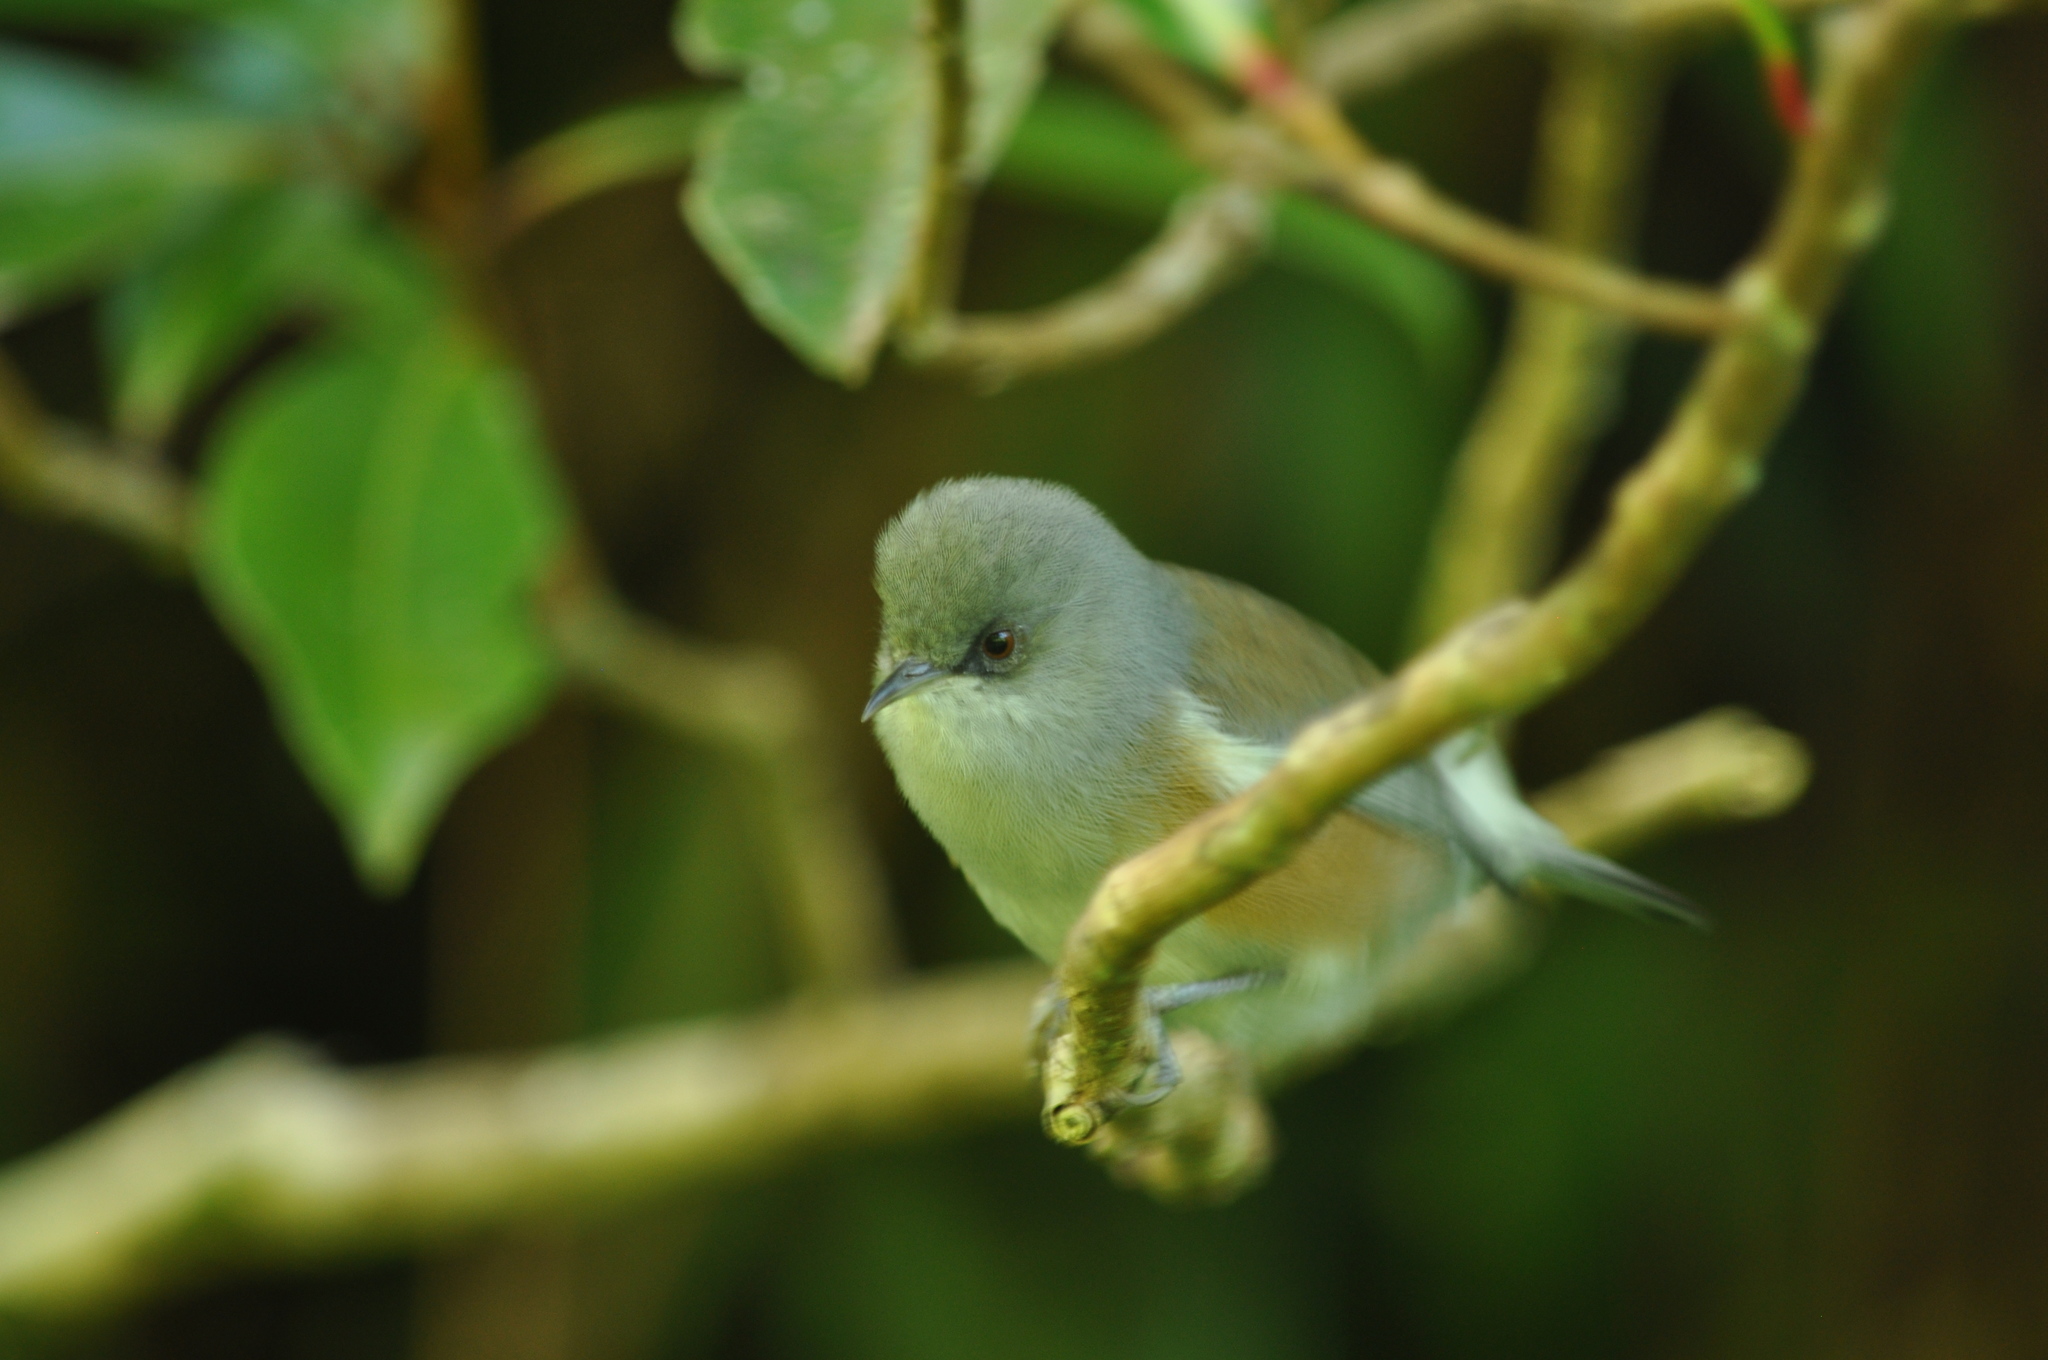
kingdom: Animalia
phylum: Chordata
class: Aves
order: Passeriformes
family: Zosteropidae
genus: Zosterops
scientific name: Zosterops borbonicus
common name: Reunion grey white-eye
